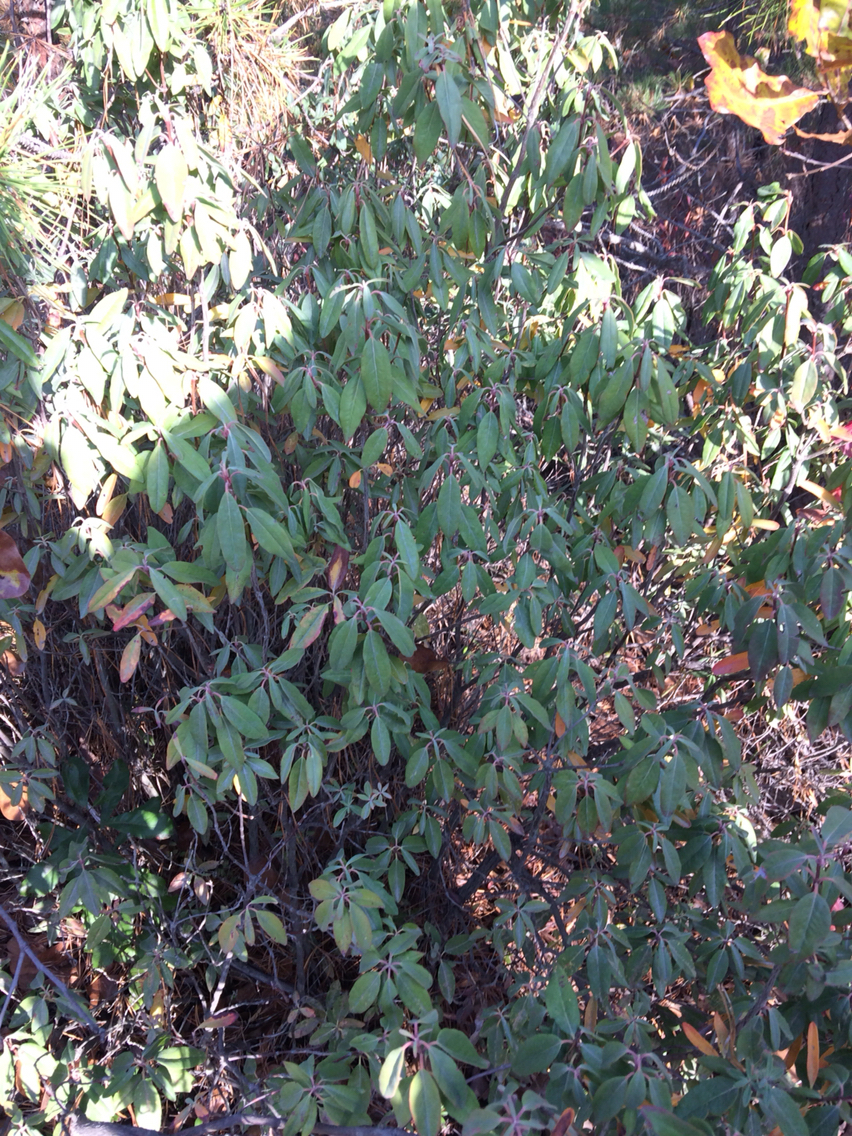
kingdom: Plantae
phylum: Tracheophyta
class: Magnoliopsida
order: Ericales
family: Ericaceae
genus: Kalmia
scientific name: Kalmia angustifolia
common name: Sheep-laurel
